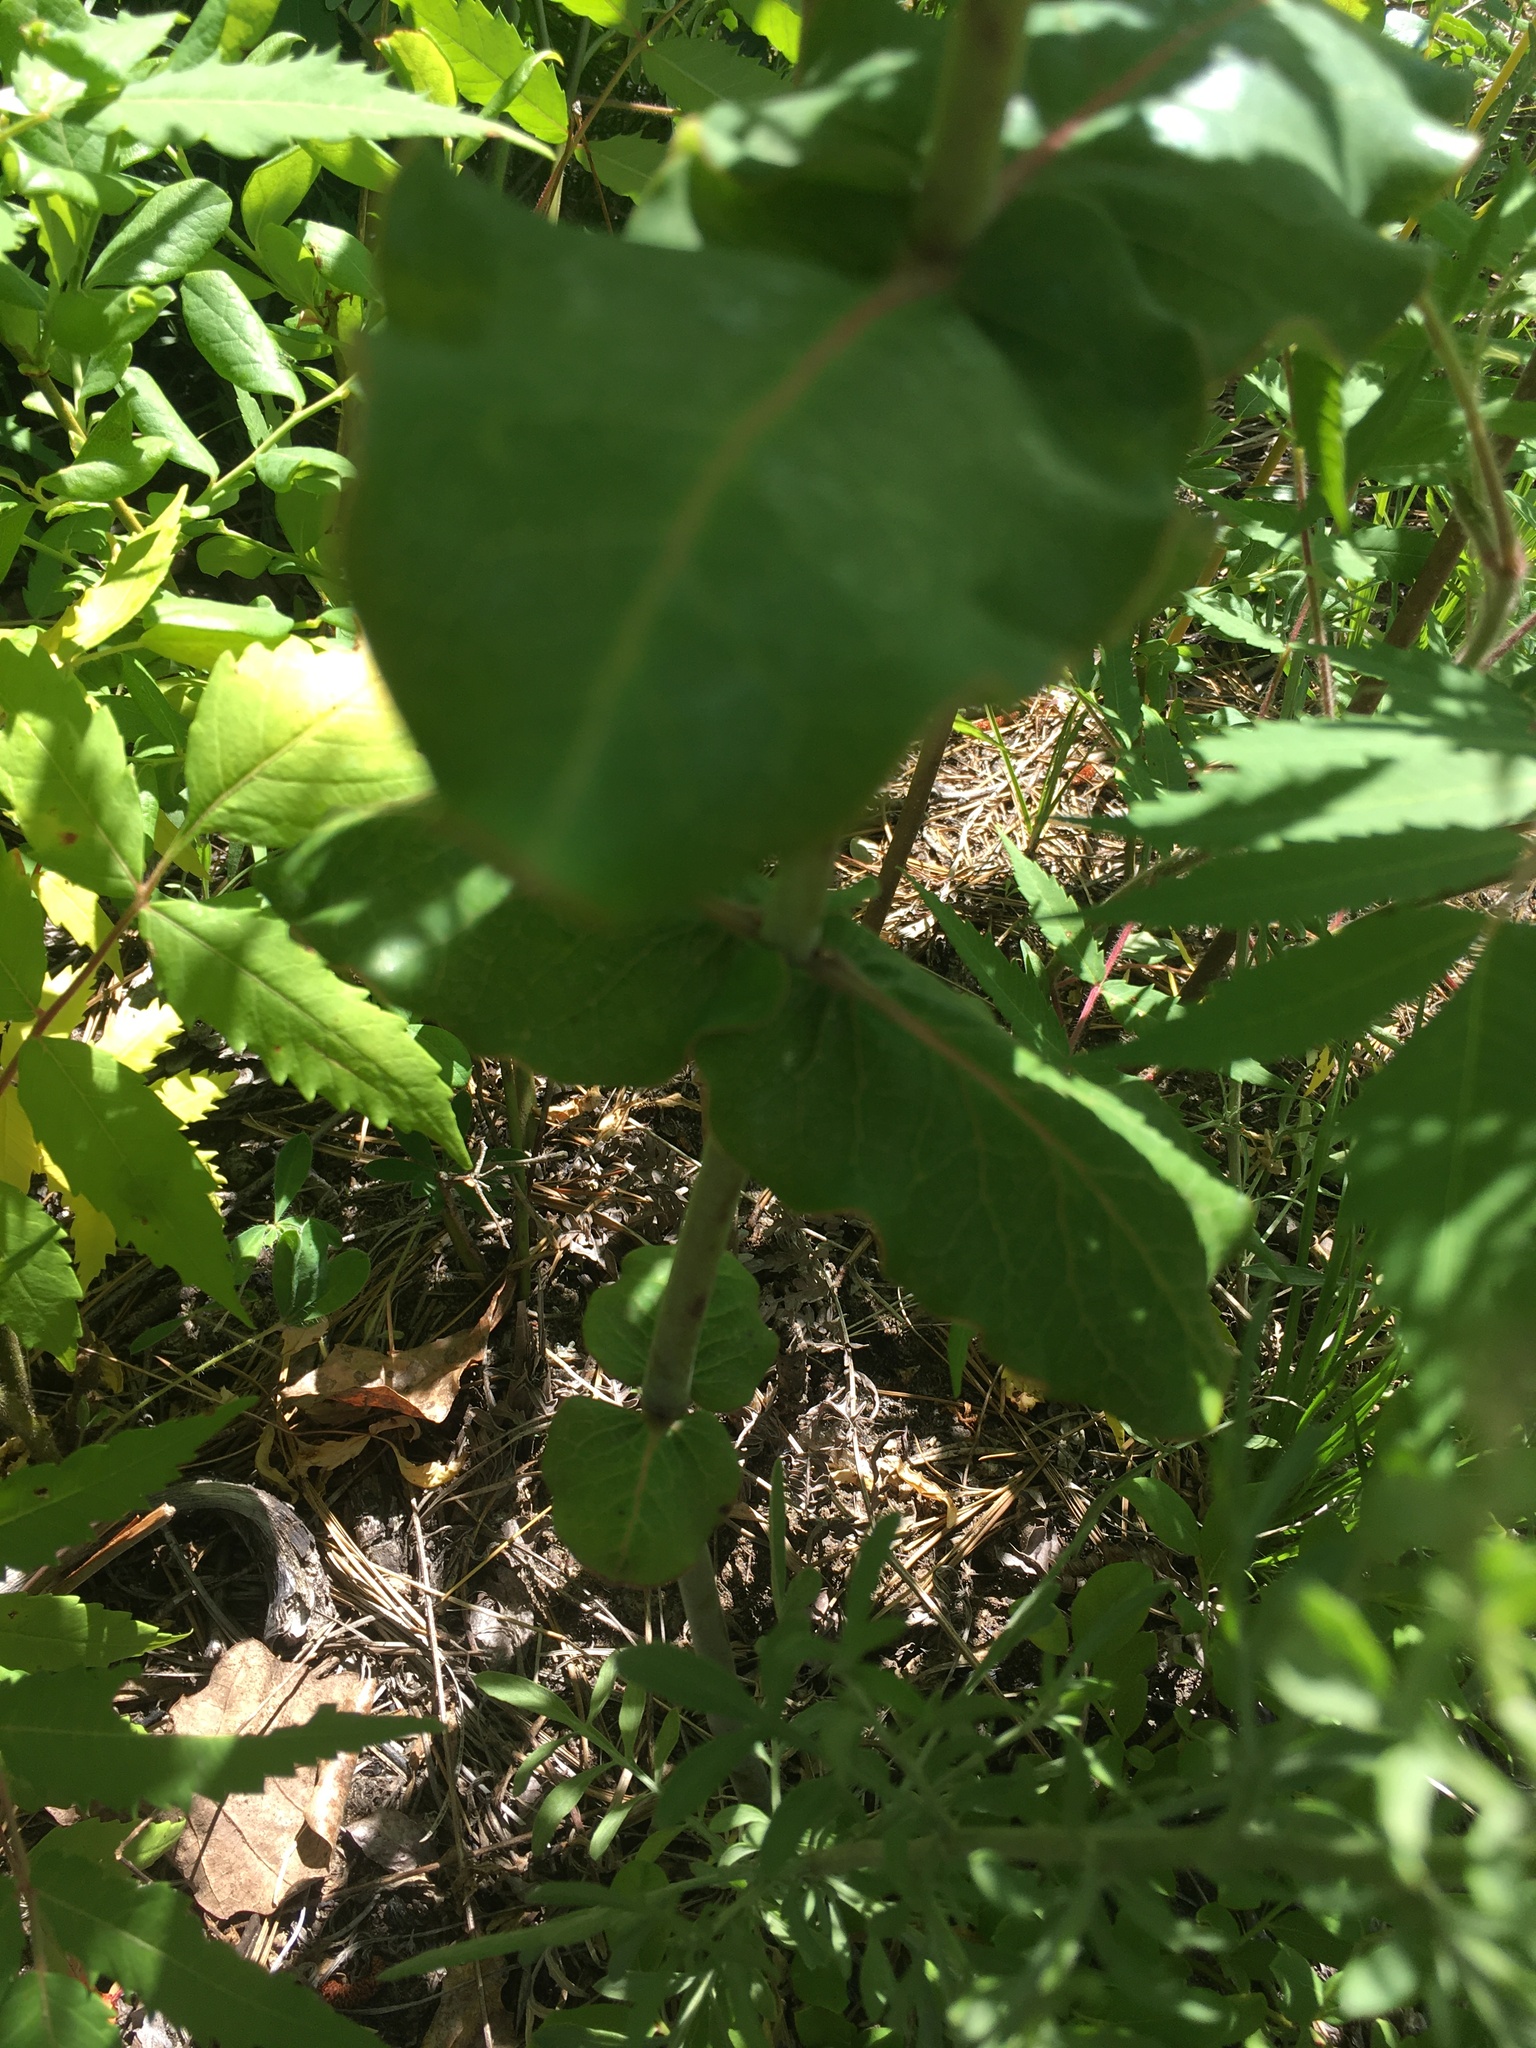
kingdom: Plantae
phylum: Tracheophyta
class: Magnoliopsida
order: Gentianales
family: Apocynaceae
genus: Asclepias
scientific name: Asclepias amplexicaulis
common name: Blunt-leaf milkweed
